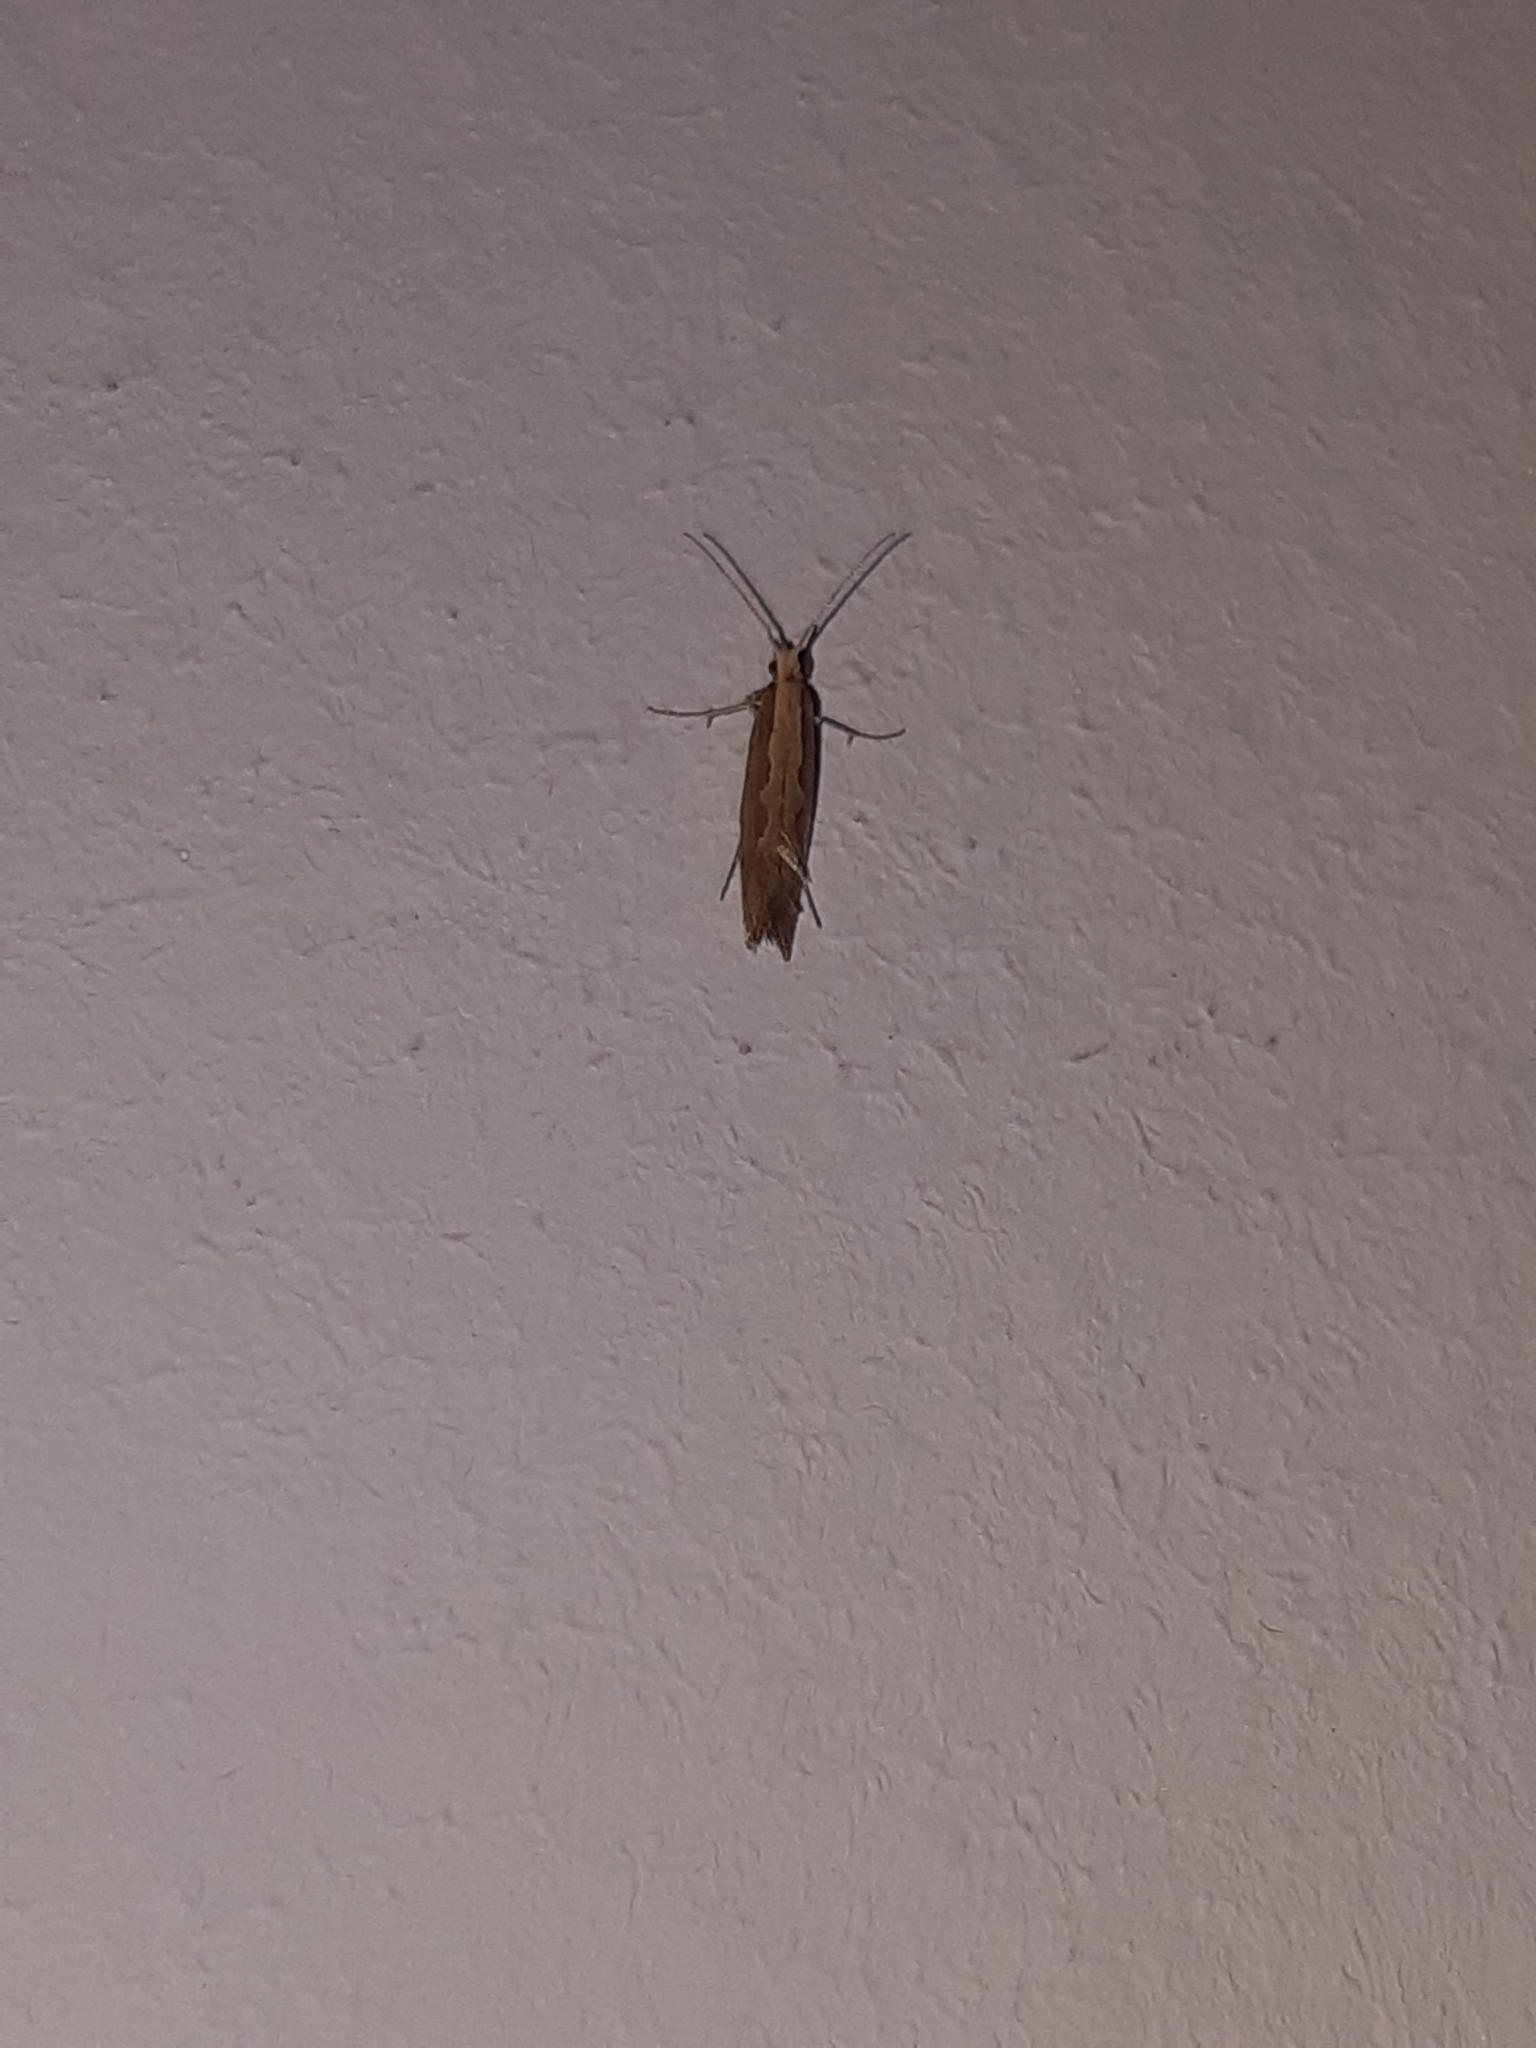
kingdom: Animalia
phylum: Arthropoda
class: Insecta
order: Lepidoptera
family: Plutellidae
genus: Plutella
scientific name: Plutella xylostella
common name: Diamond-back moth
